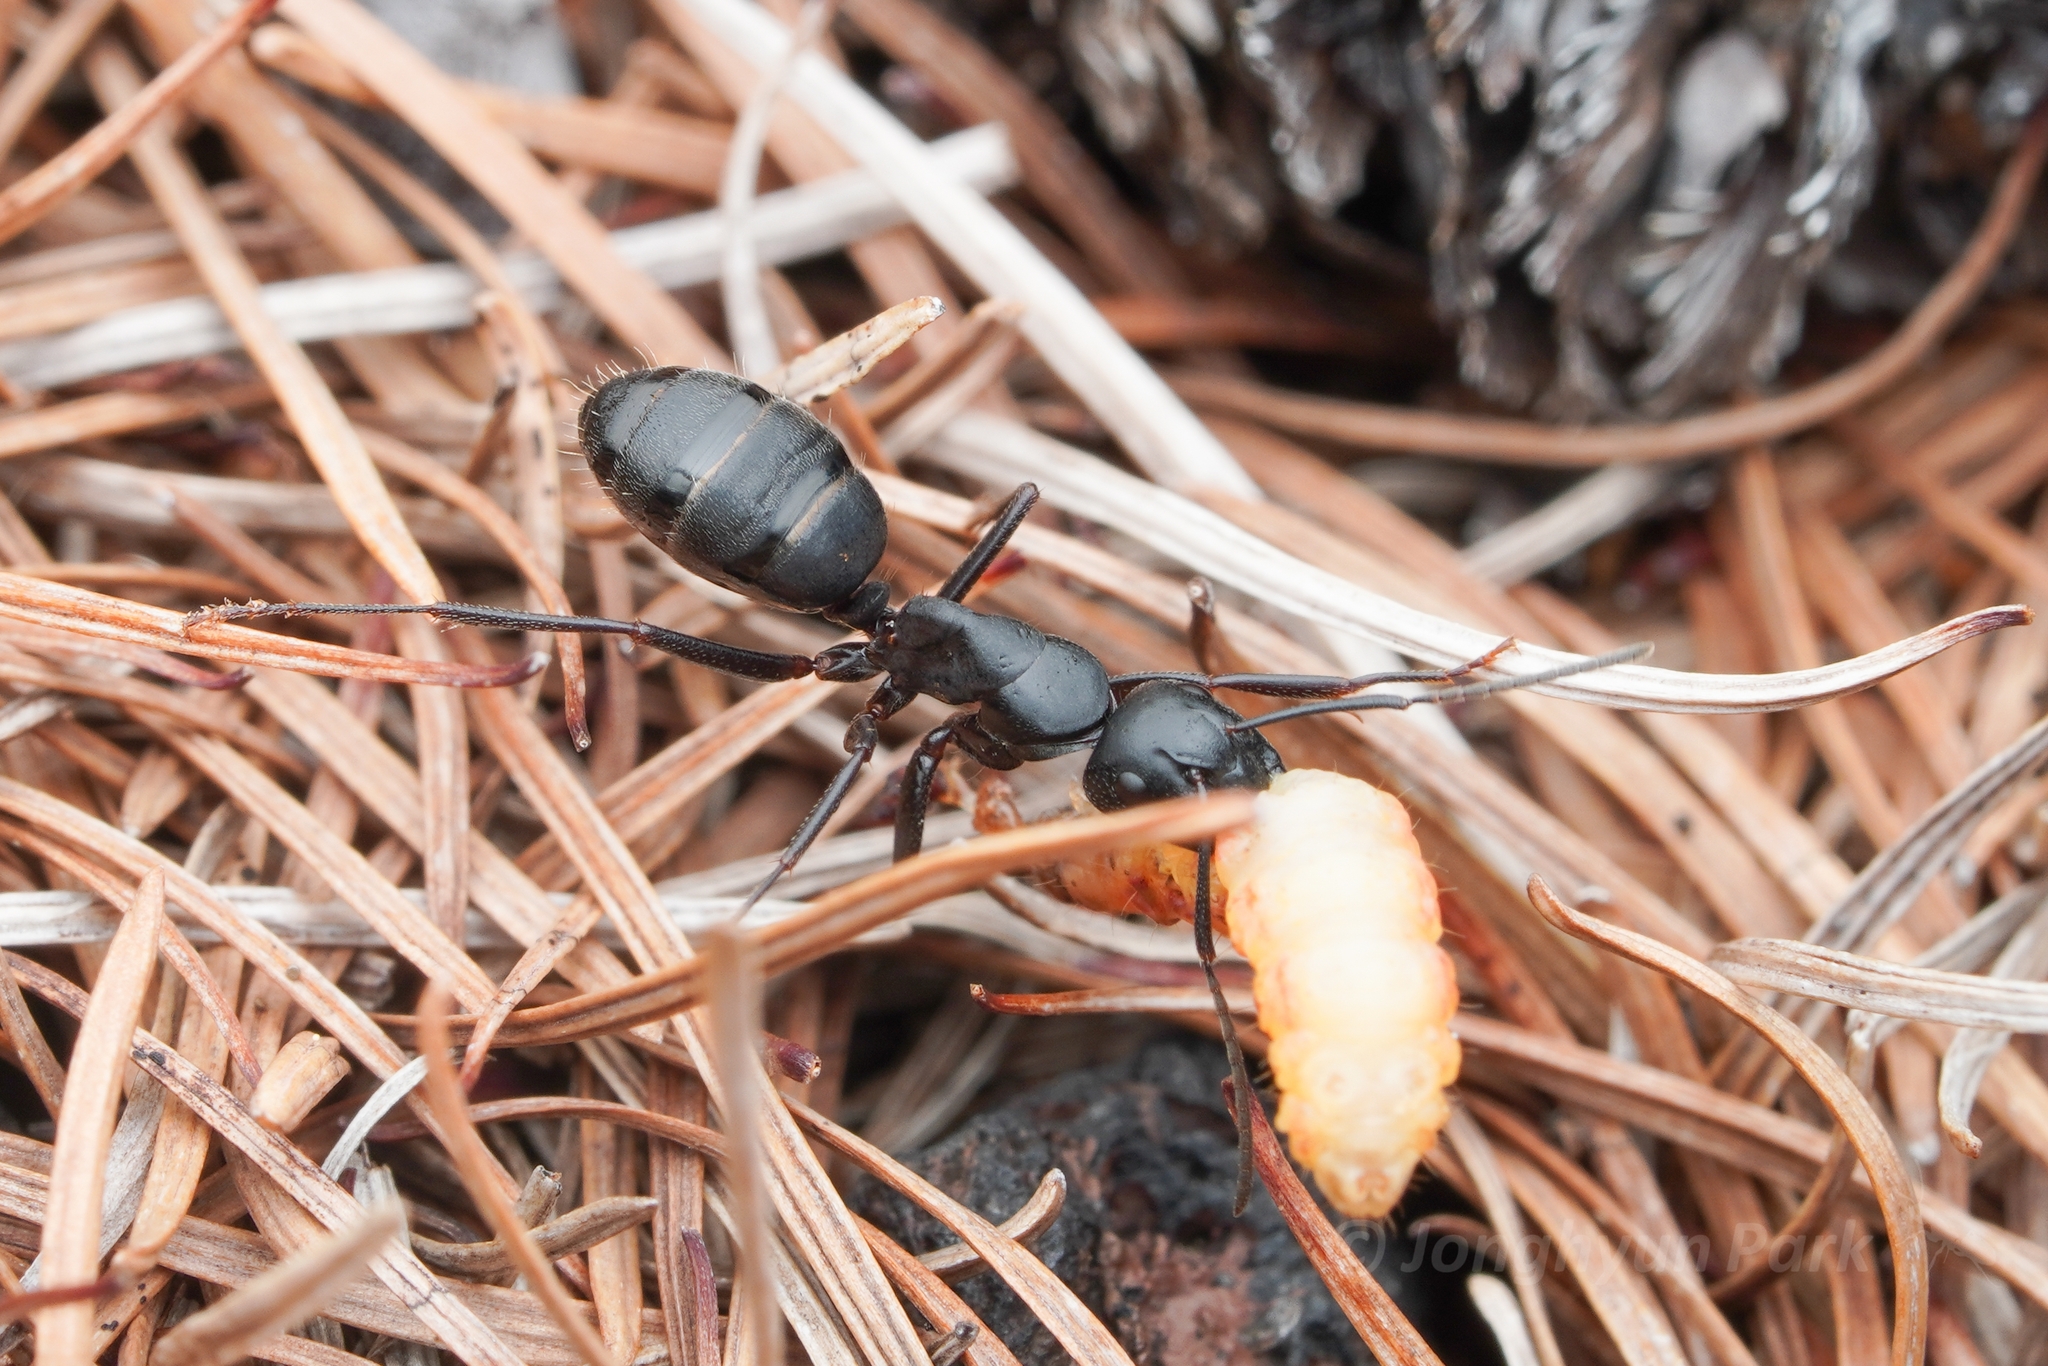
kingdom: Animalia
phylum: Arthropoda
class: Insecta
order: Hymenoptera
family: Formicidae
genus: Camponotus
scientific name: Camponotus herculeanus
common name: Hercules ant
